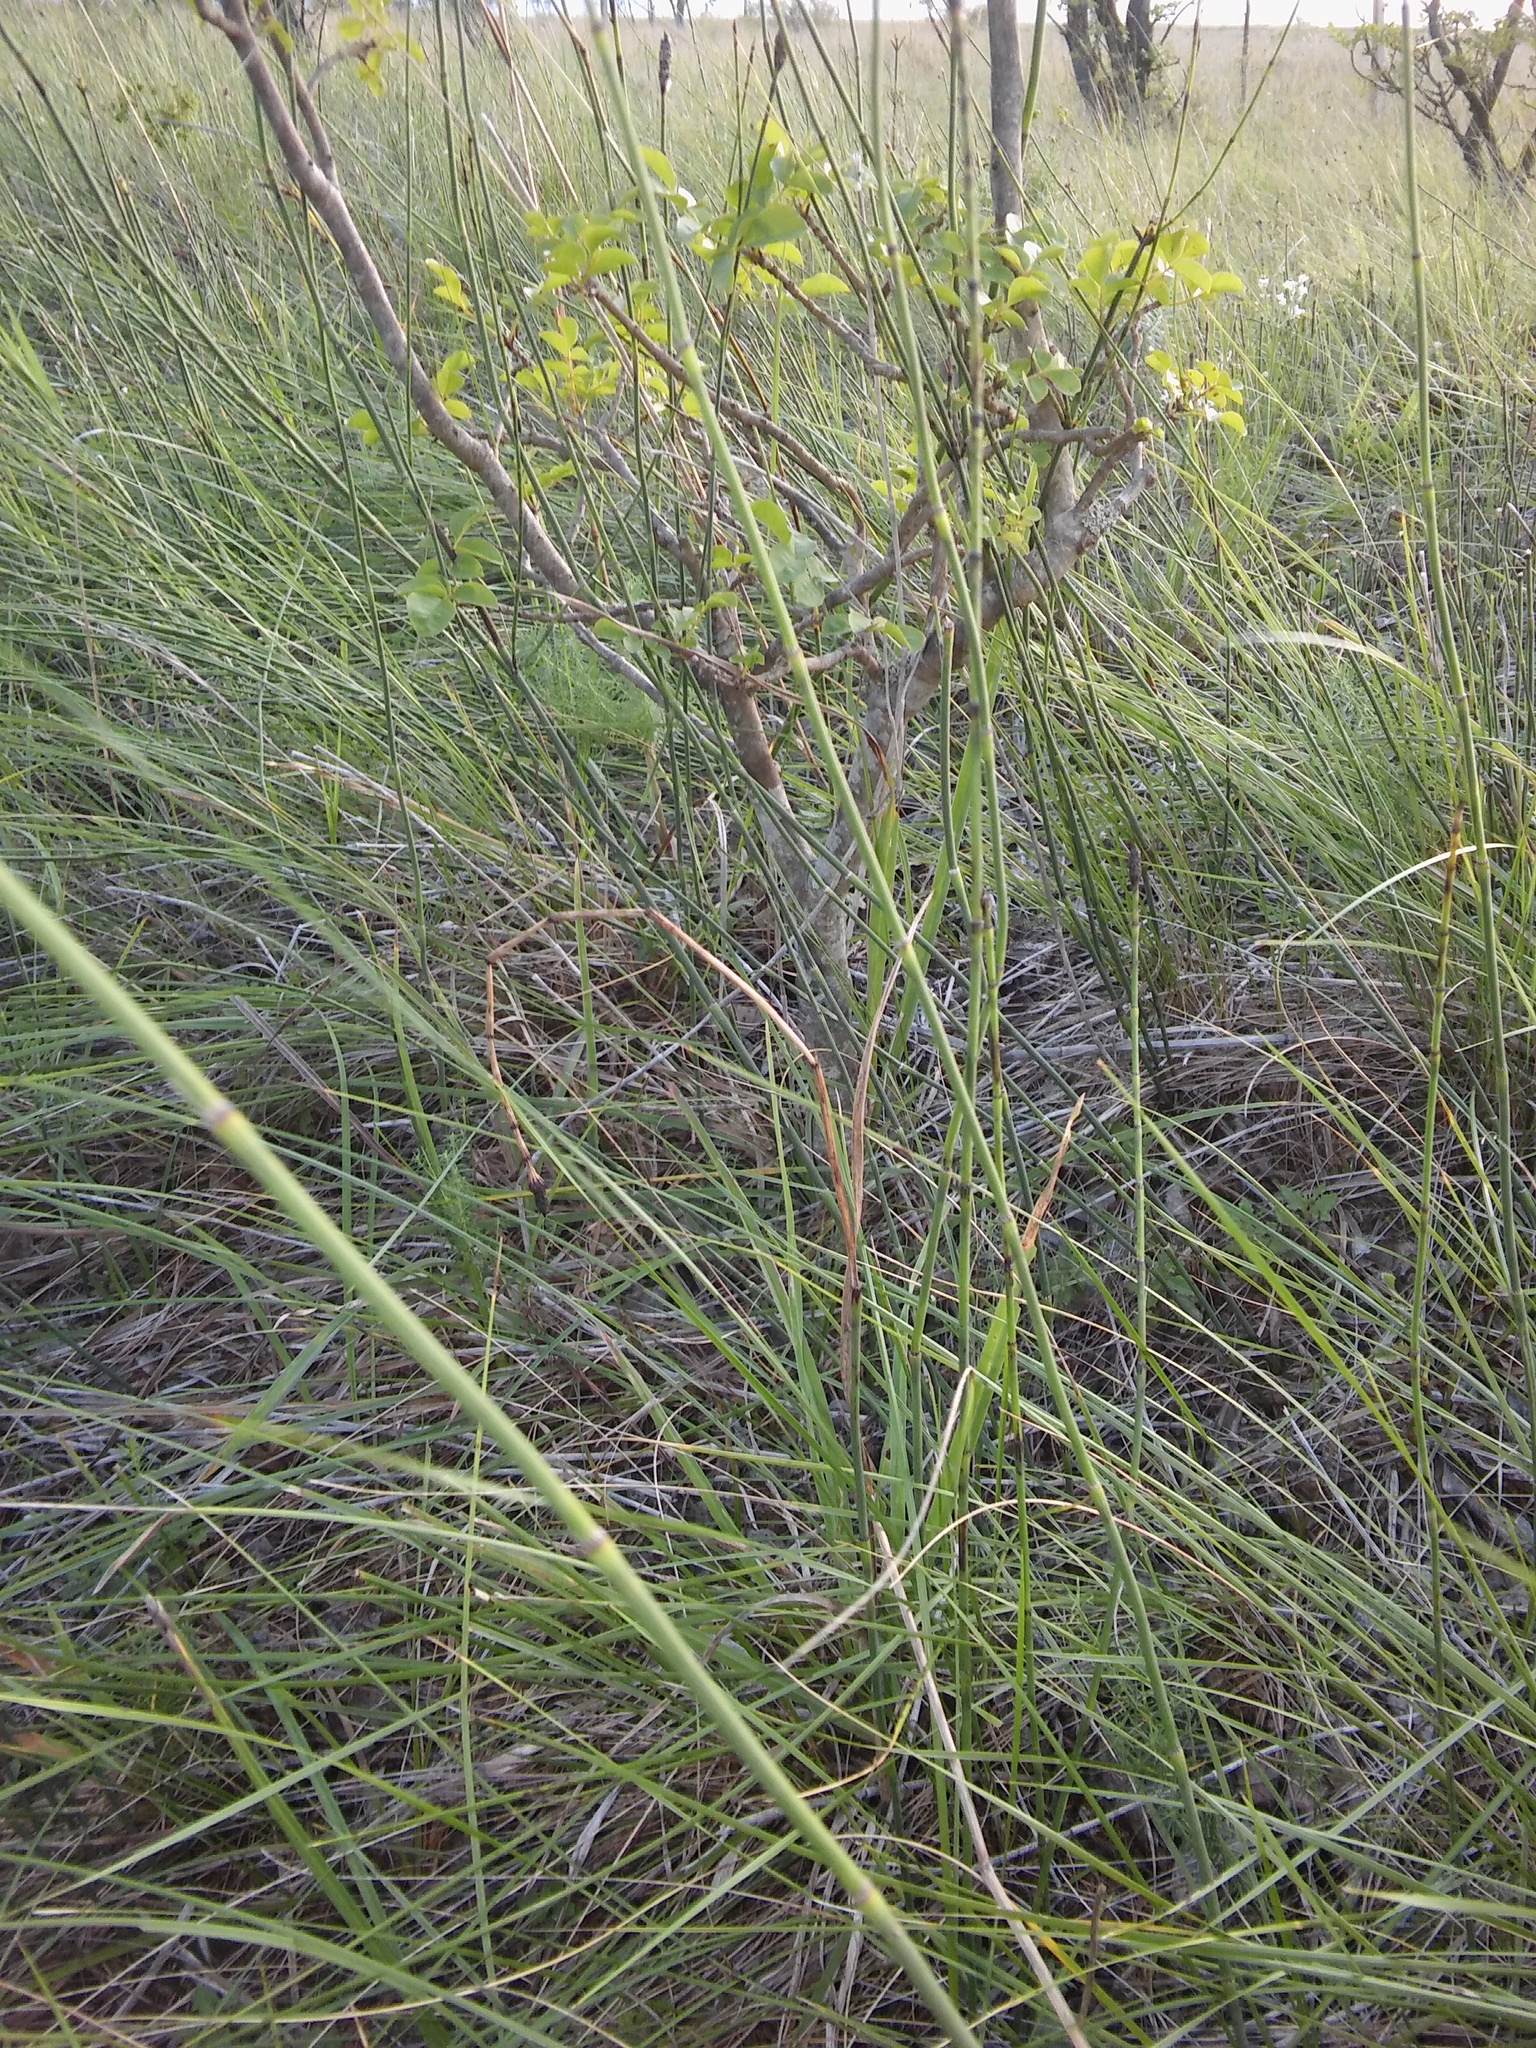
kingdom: Plantae
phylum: Tracheophyta
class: Polypodiopsida
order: Equisetales
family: Equisetaceae
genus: Equisetum
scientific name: Equisetum ramosissimum
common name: Branched horsetail
